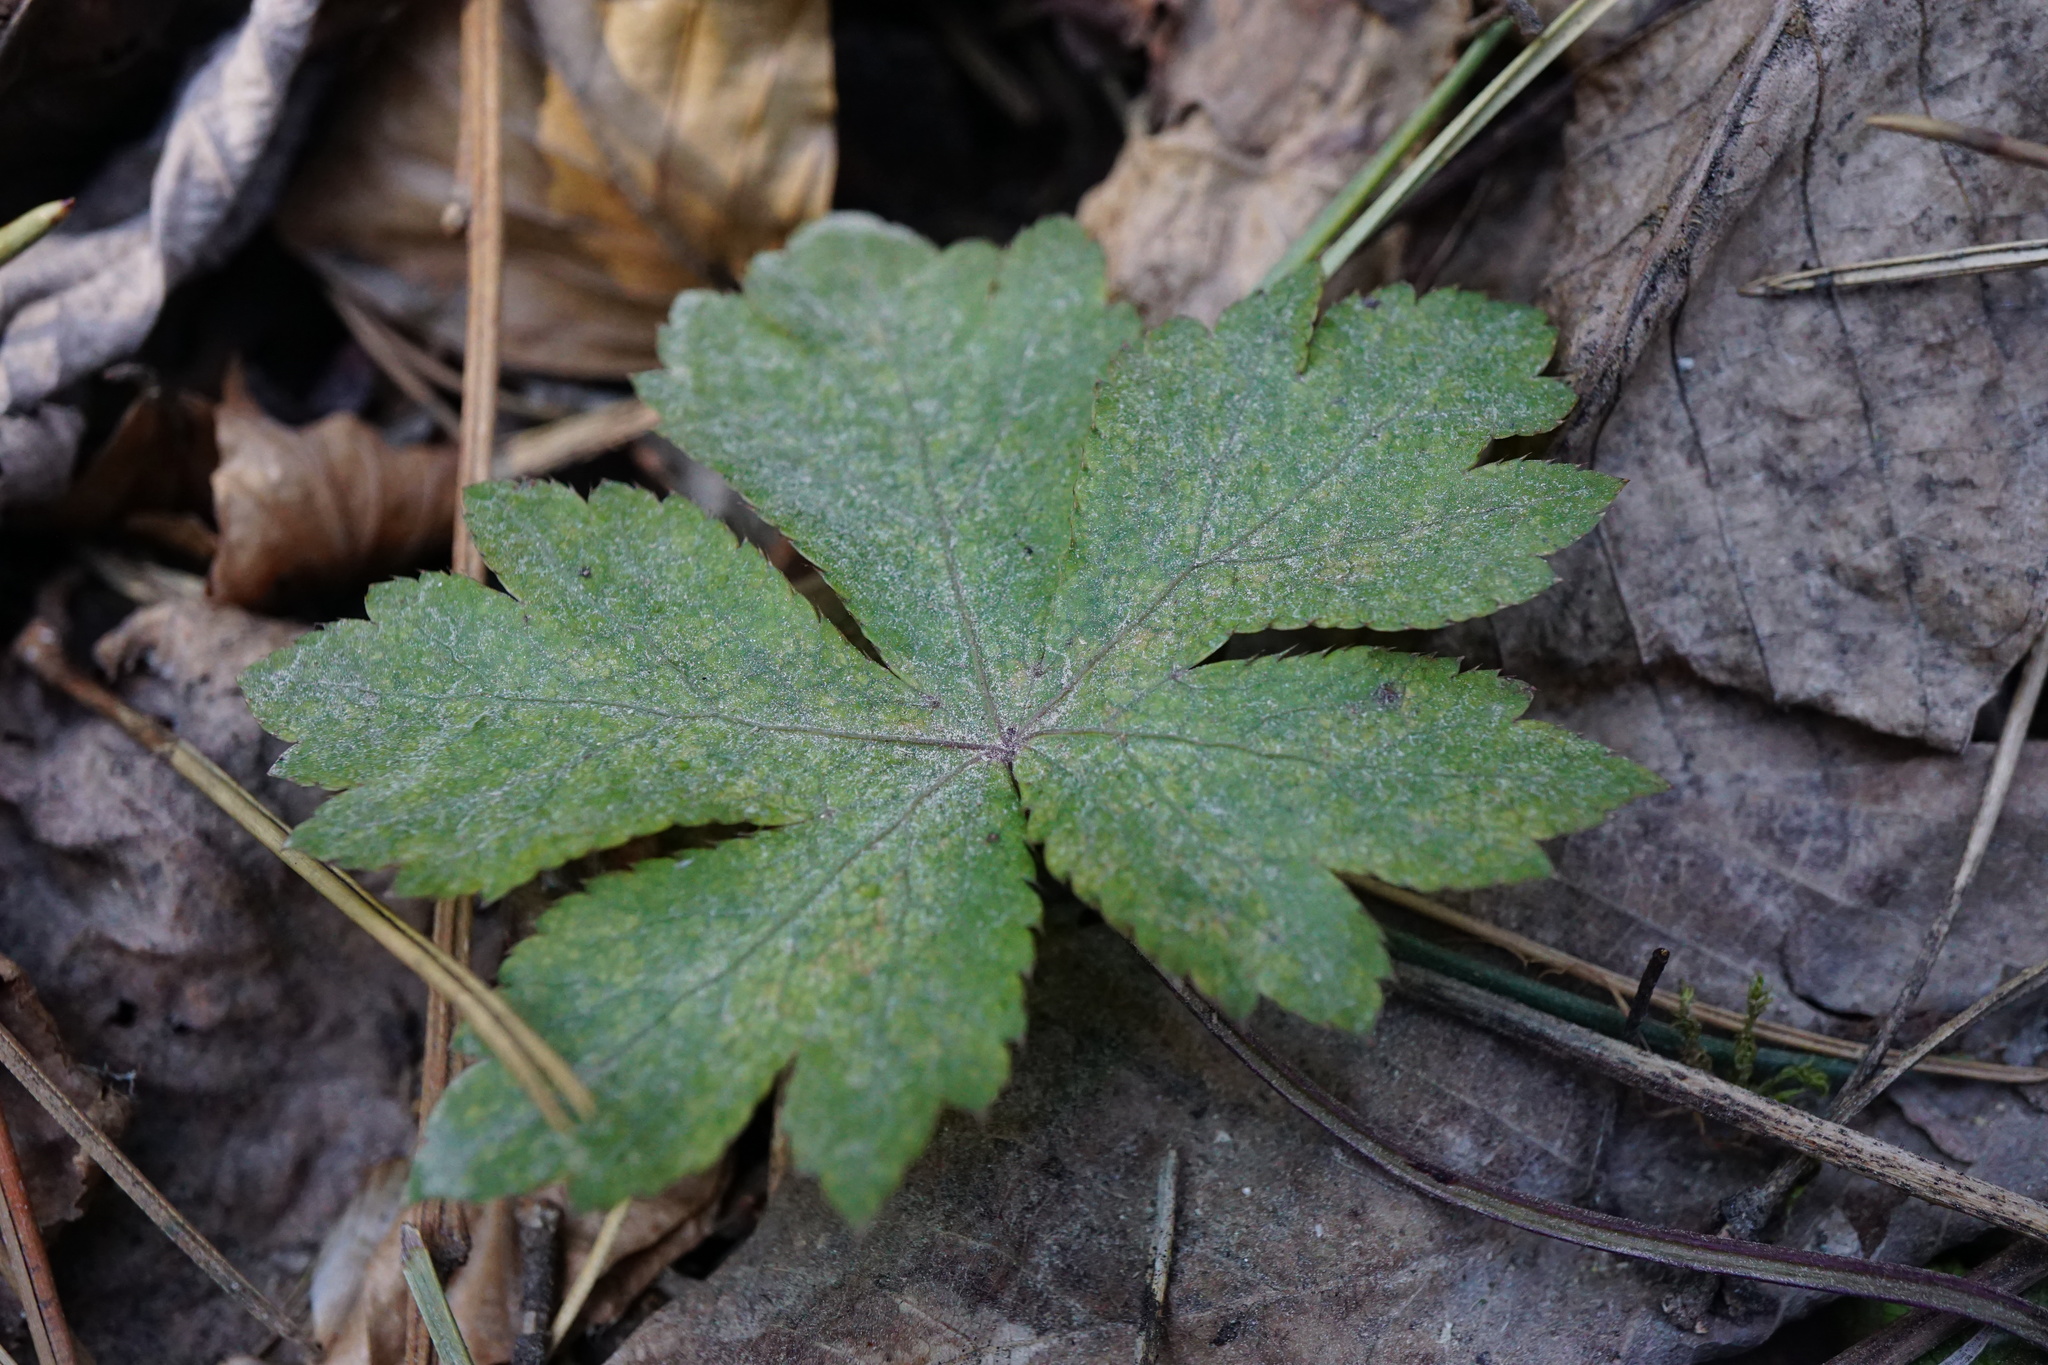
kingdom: Plantae
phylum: Tracheophyta
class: Magnoliopsida
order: Apiales
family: Apiaceae
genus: Sanicula
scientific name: Sanicula europaea
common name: Sanicle
